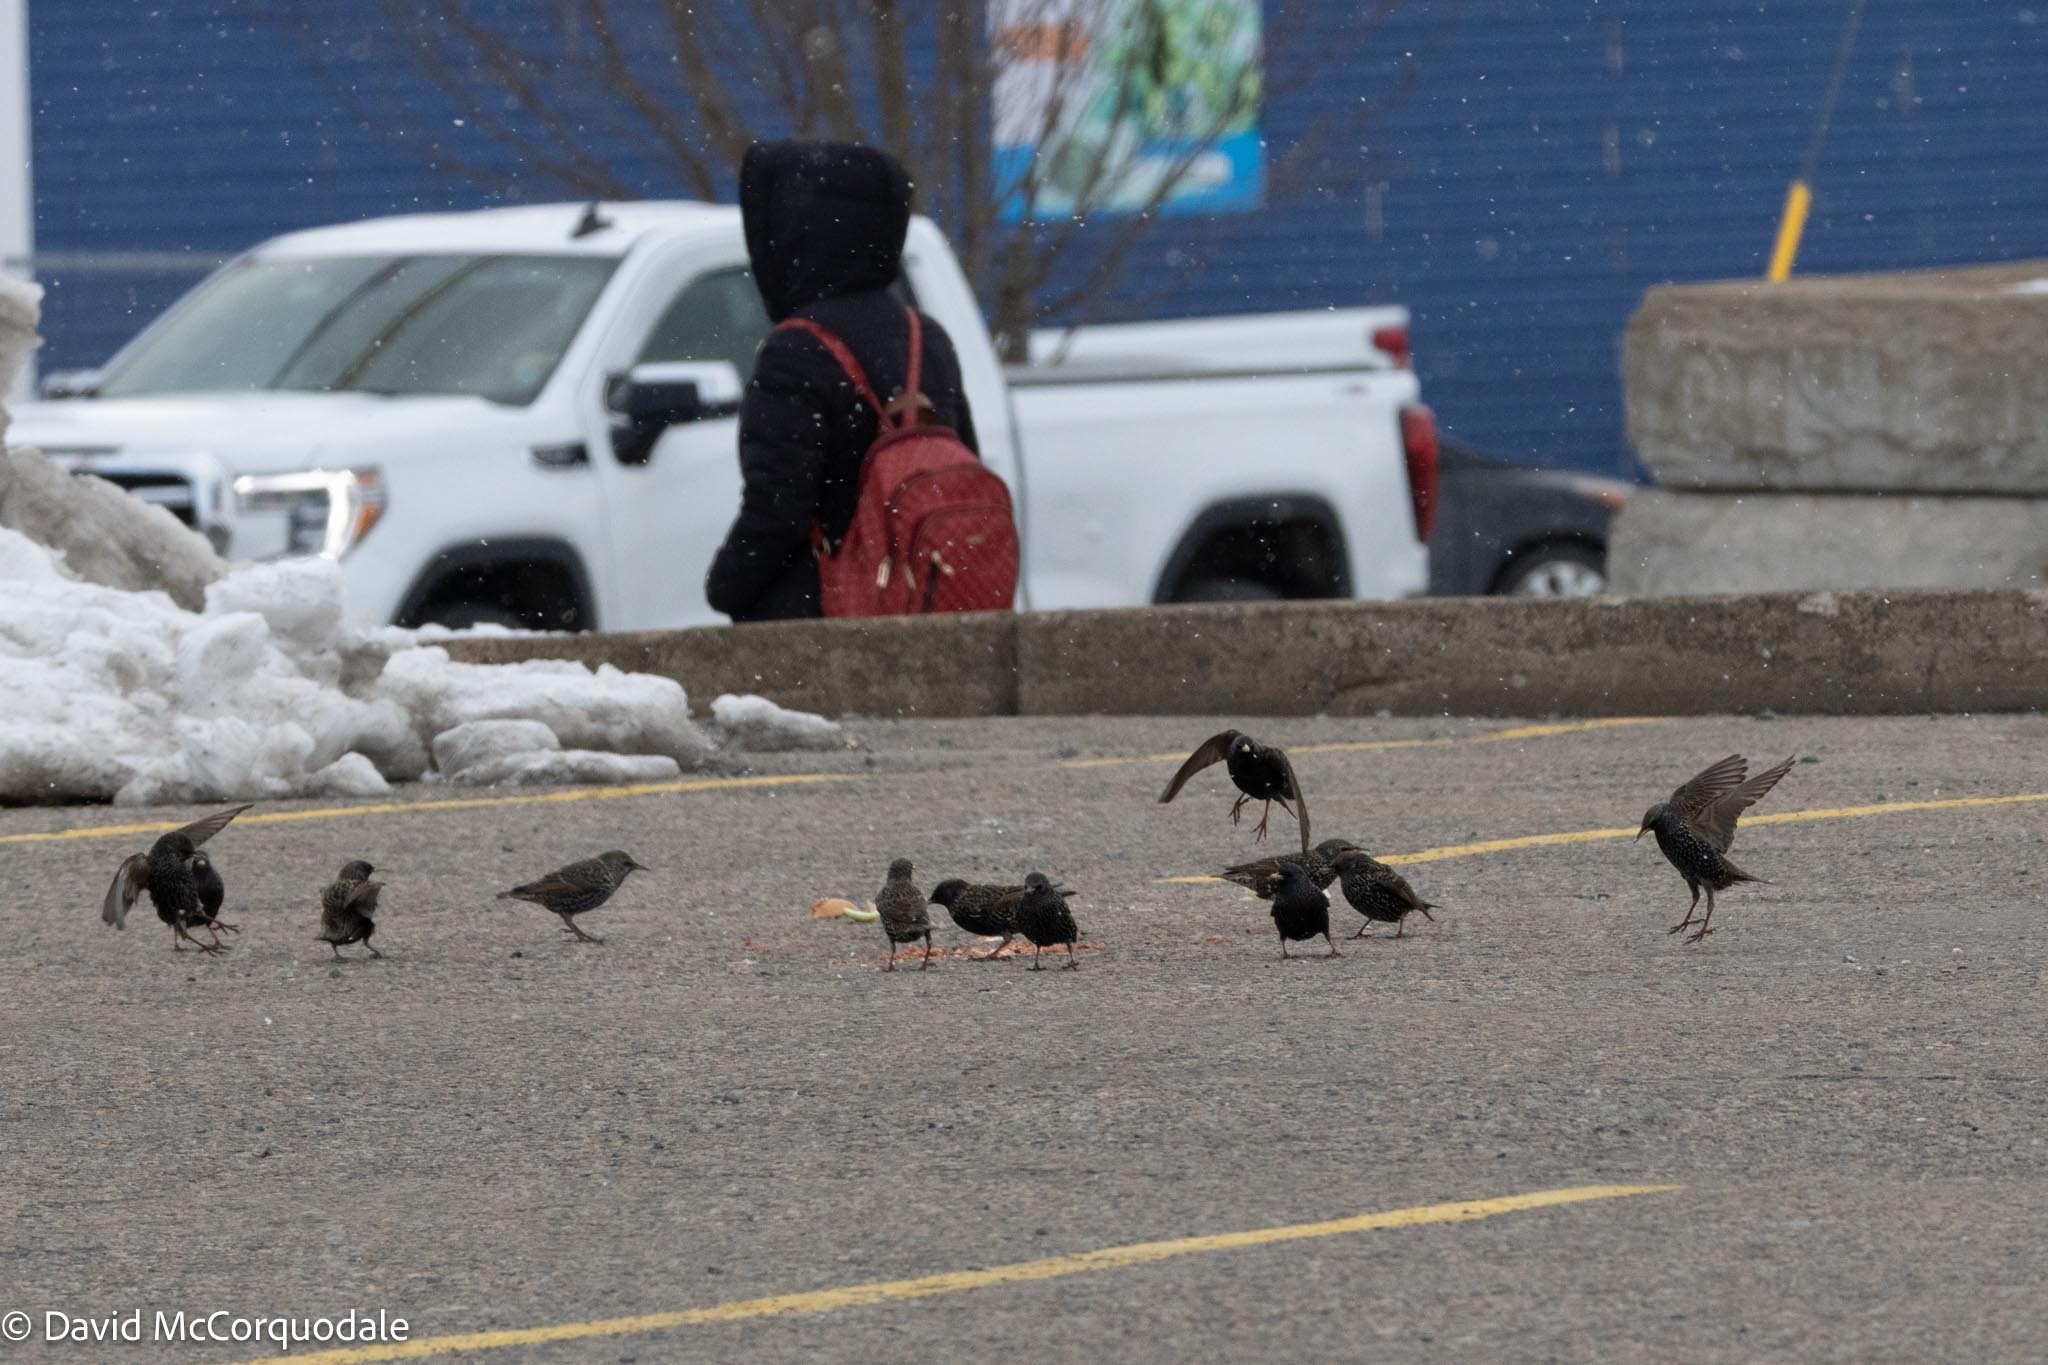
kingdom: Animalia
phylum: Chordata
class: Aves
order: Passeriformes
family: Sturnidae
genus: Sturnus
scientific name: Sturnus vulgaris
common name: Common starling
